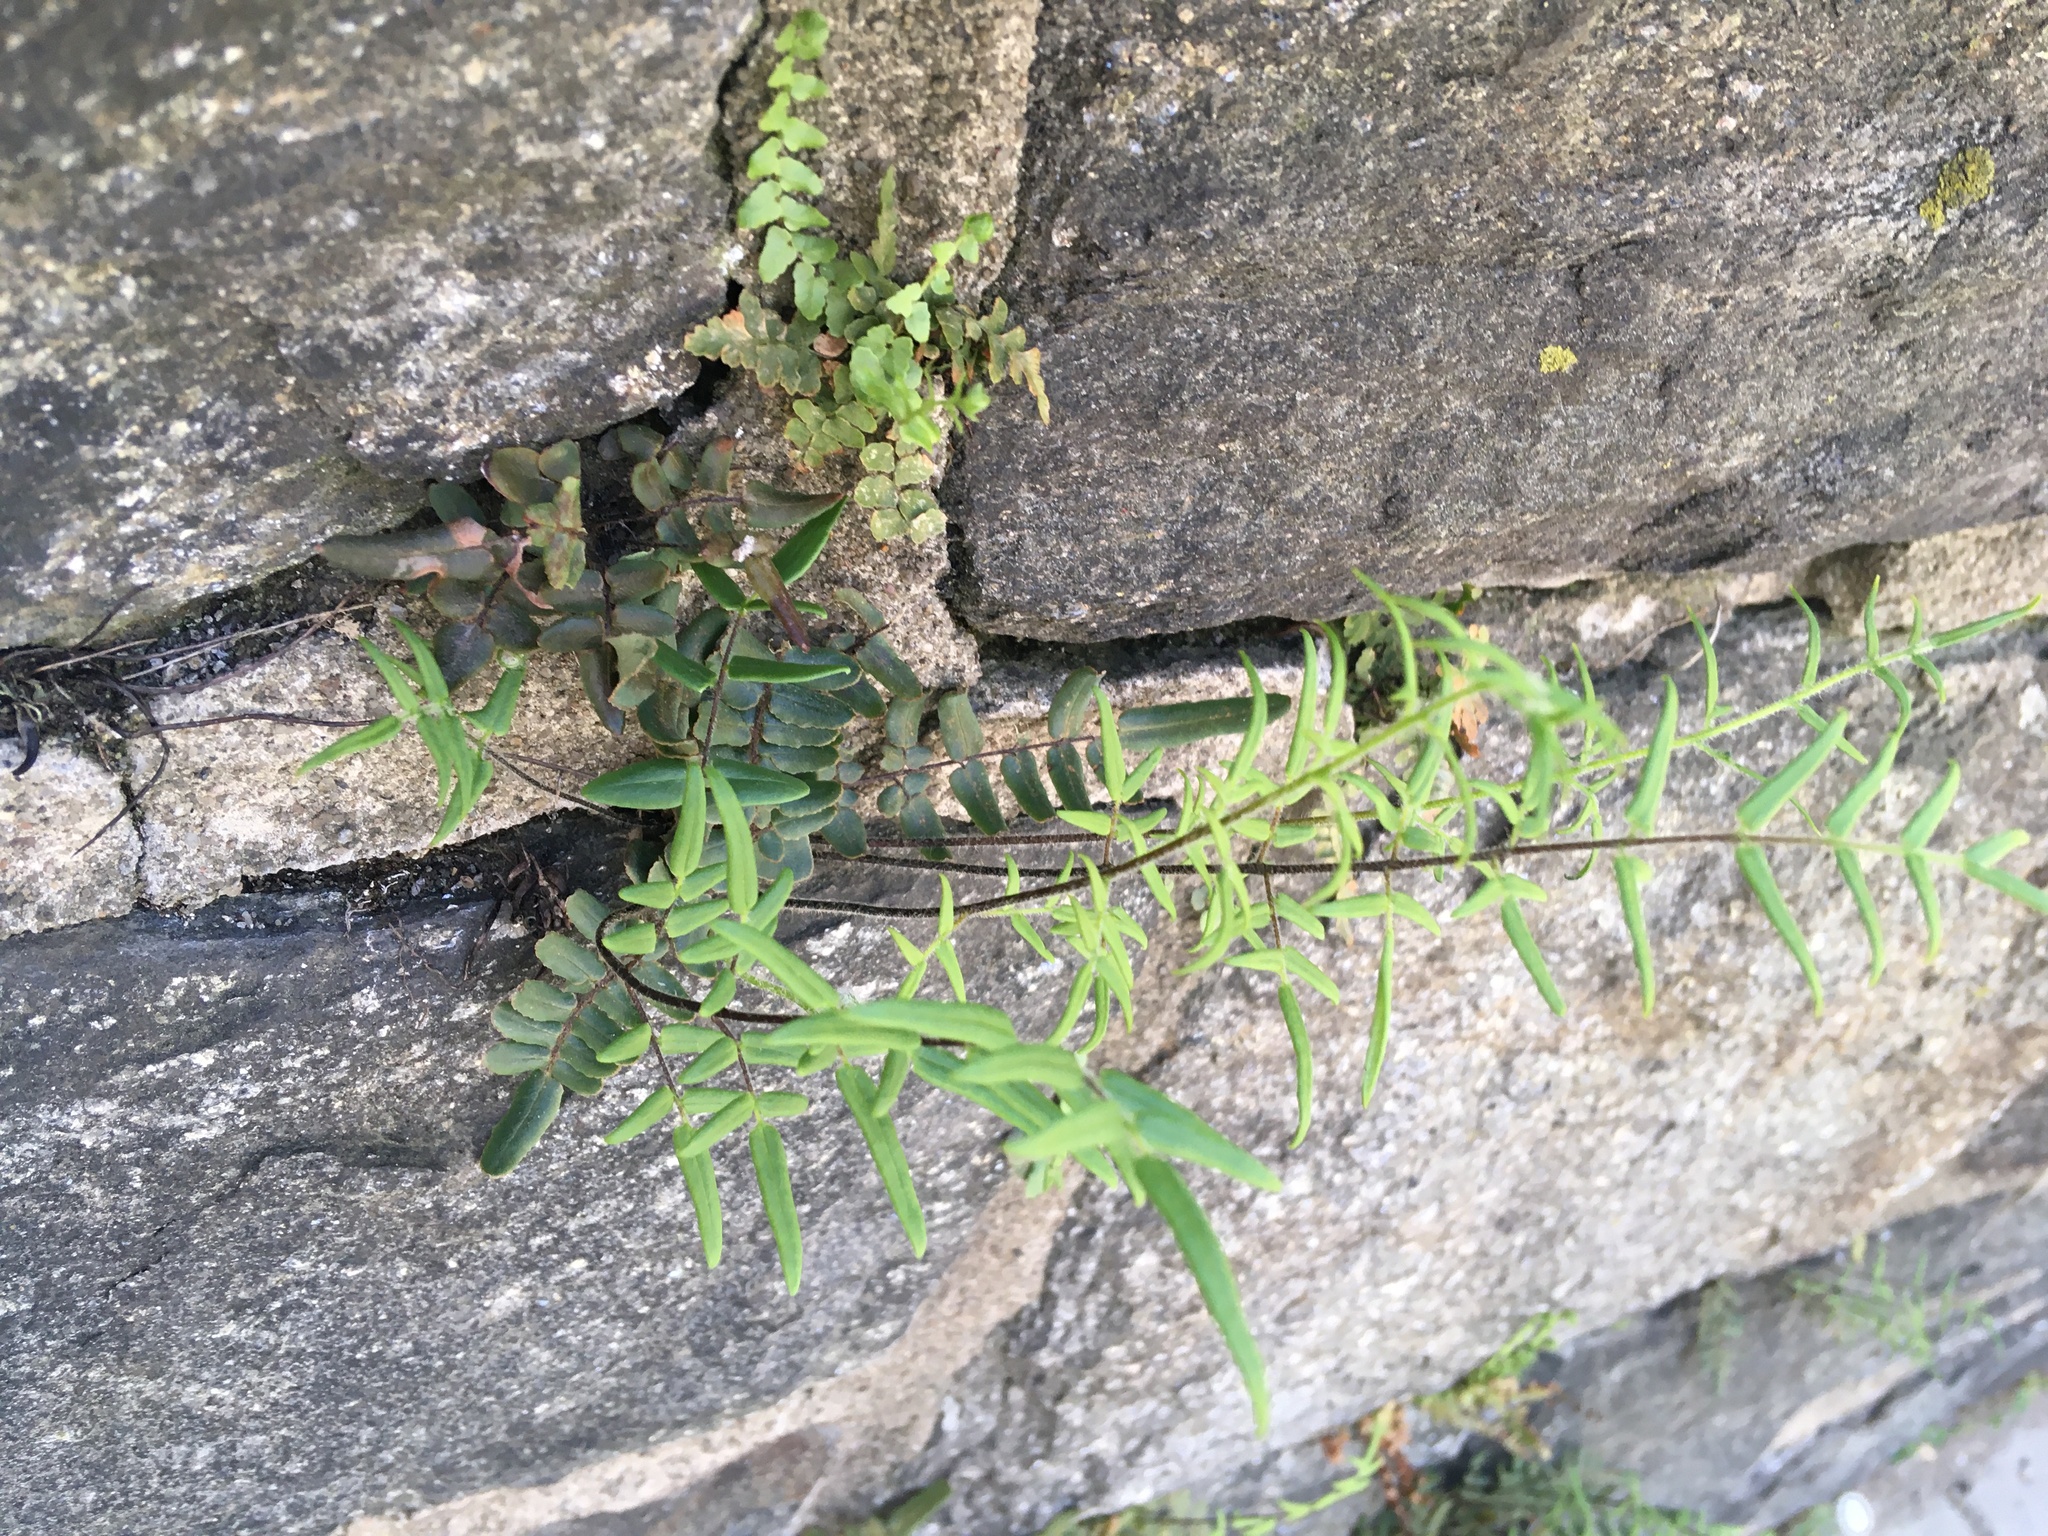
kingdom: Plantae
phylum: Tracheophyta
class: Polypodiopsida
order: Polypodiales
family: Pteridaceae
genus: Pellaea
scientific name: Pellaea atropurpurea
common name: Hairy cliffbrake
